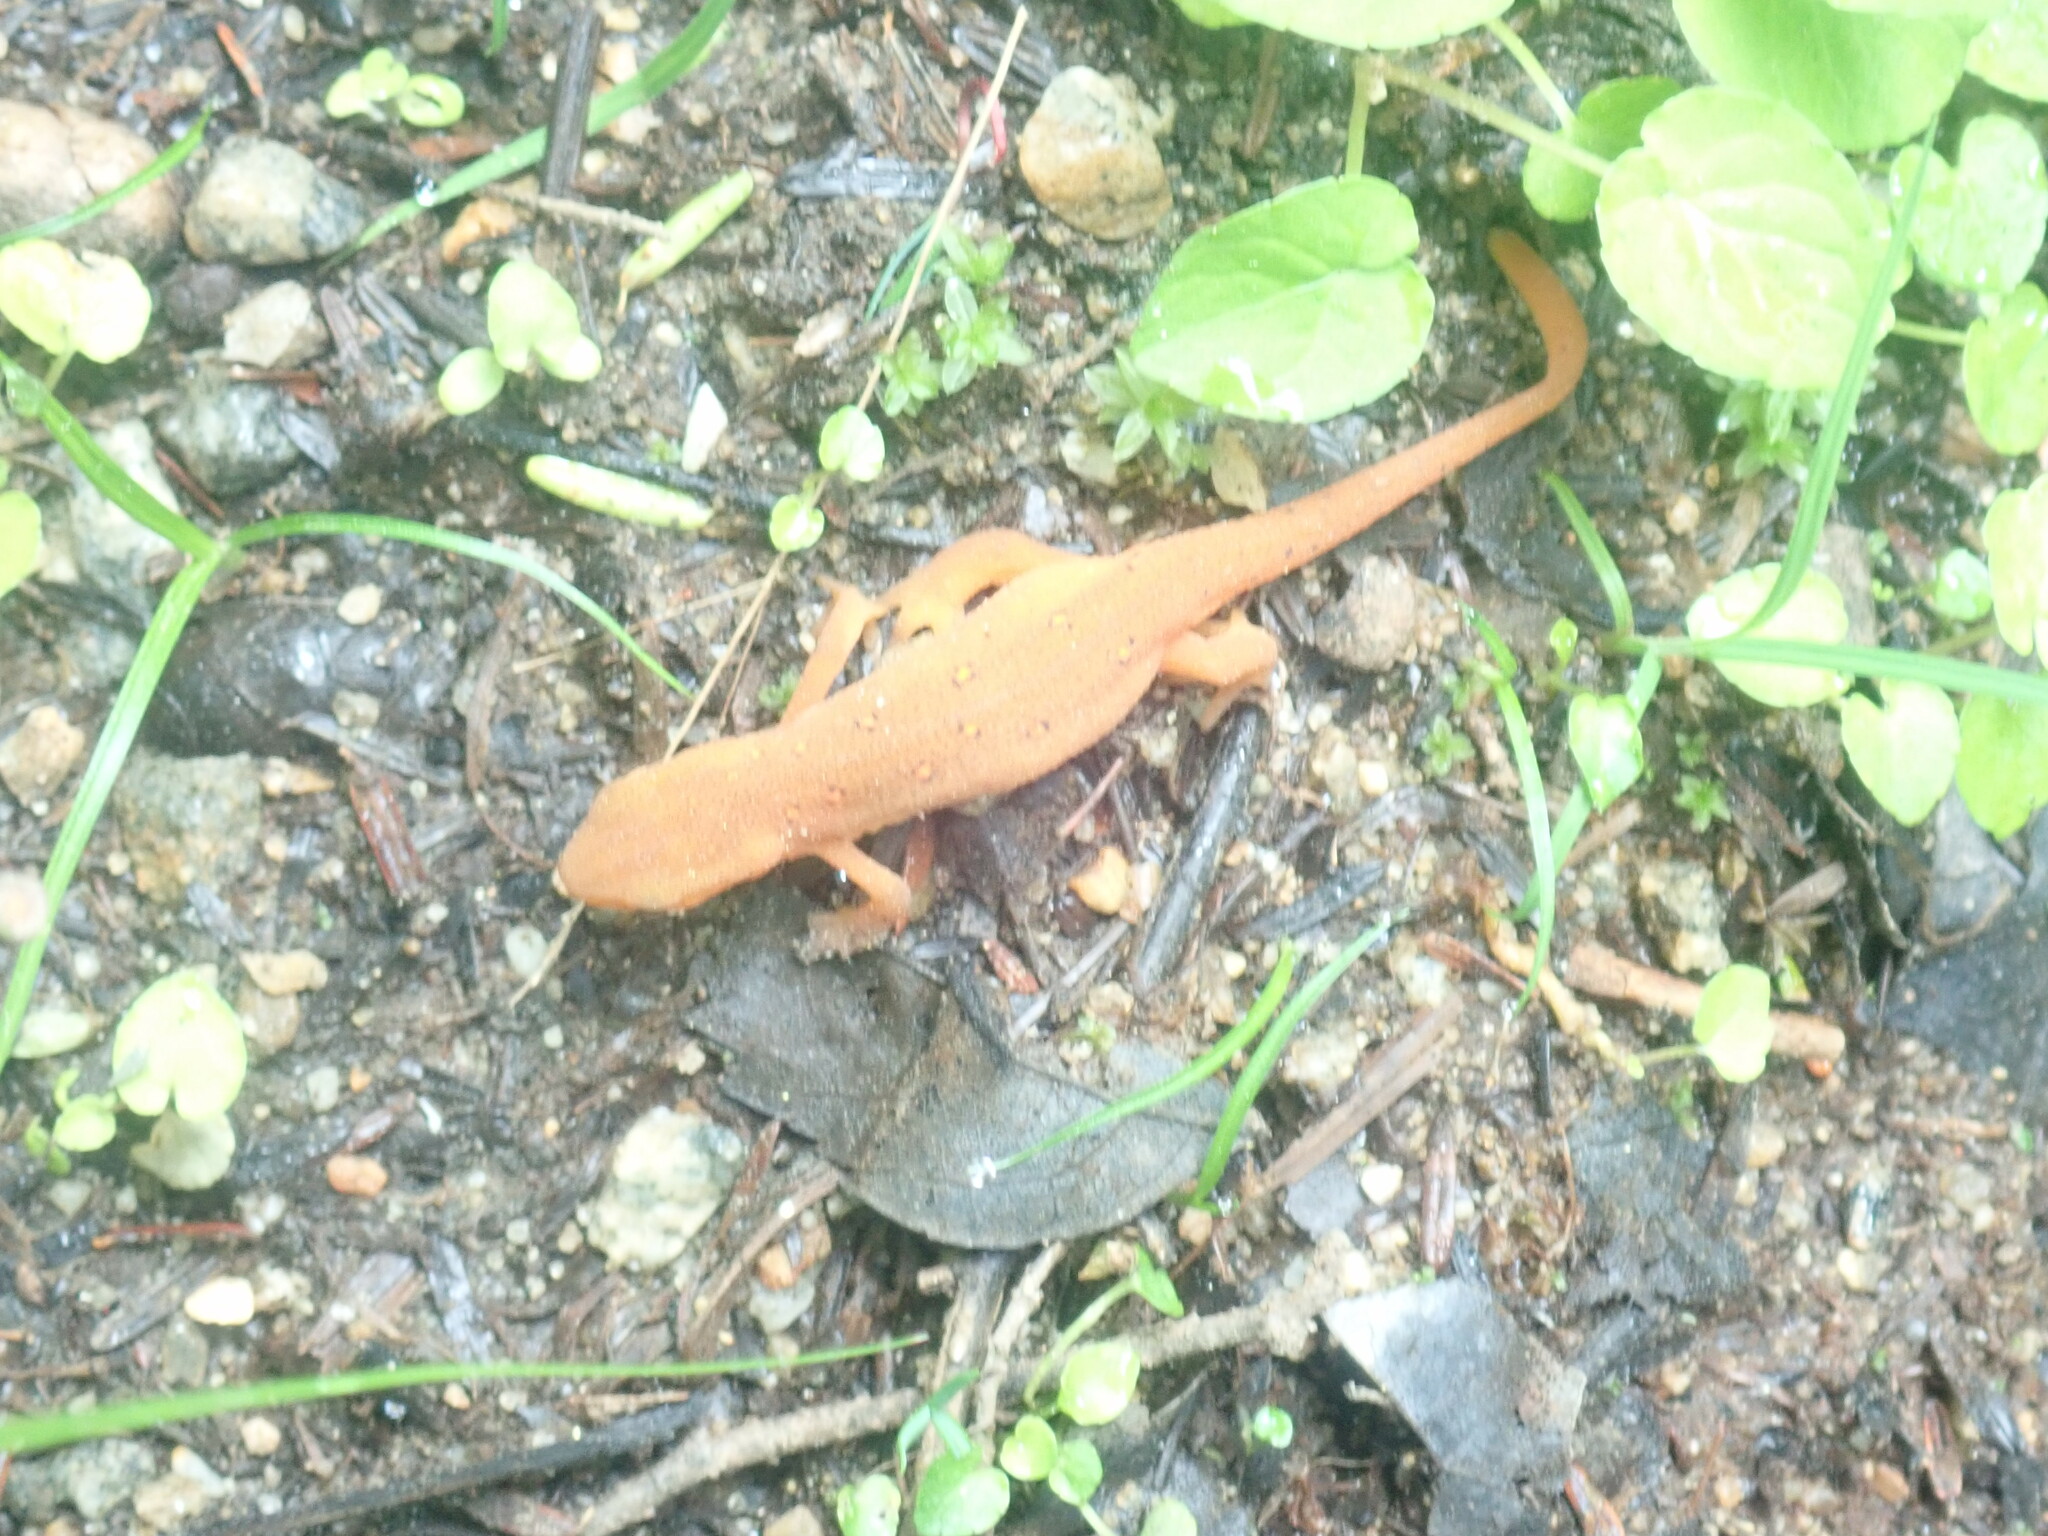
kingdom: Animalia
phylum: Chordata
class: Amphibia
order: Caudata
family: Salamandridae
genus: Notophthalmus
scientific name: Notophthalmus viridescens
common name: Eastern newt
